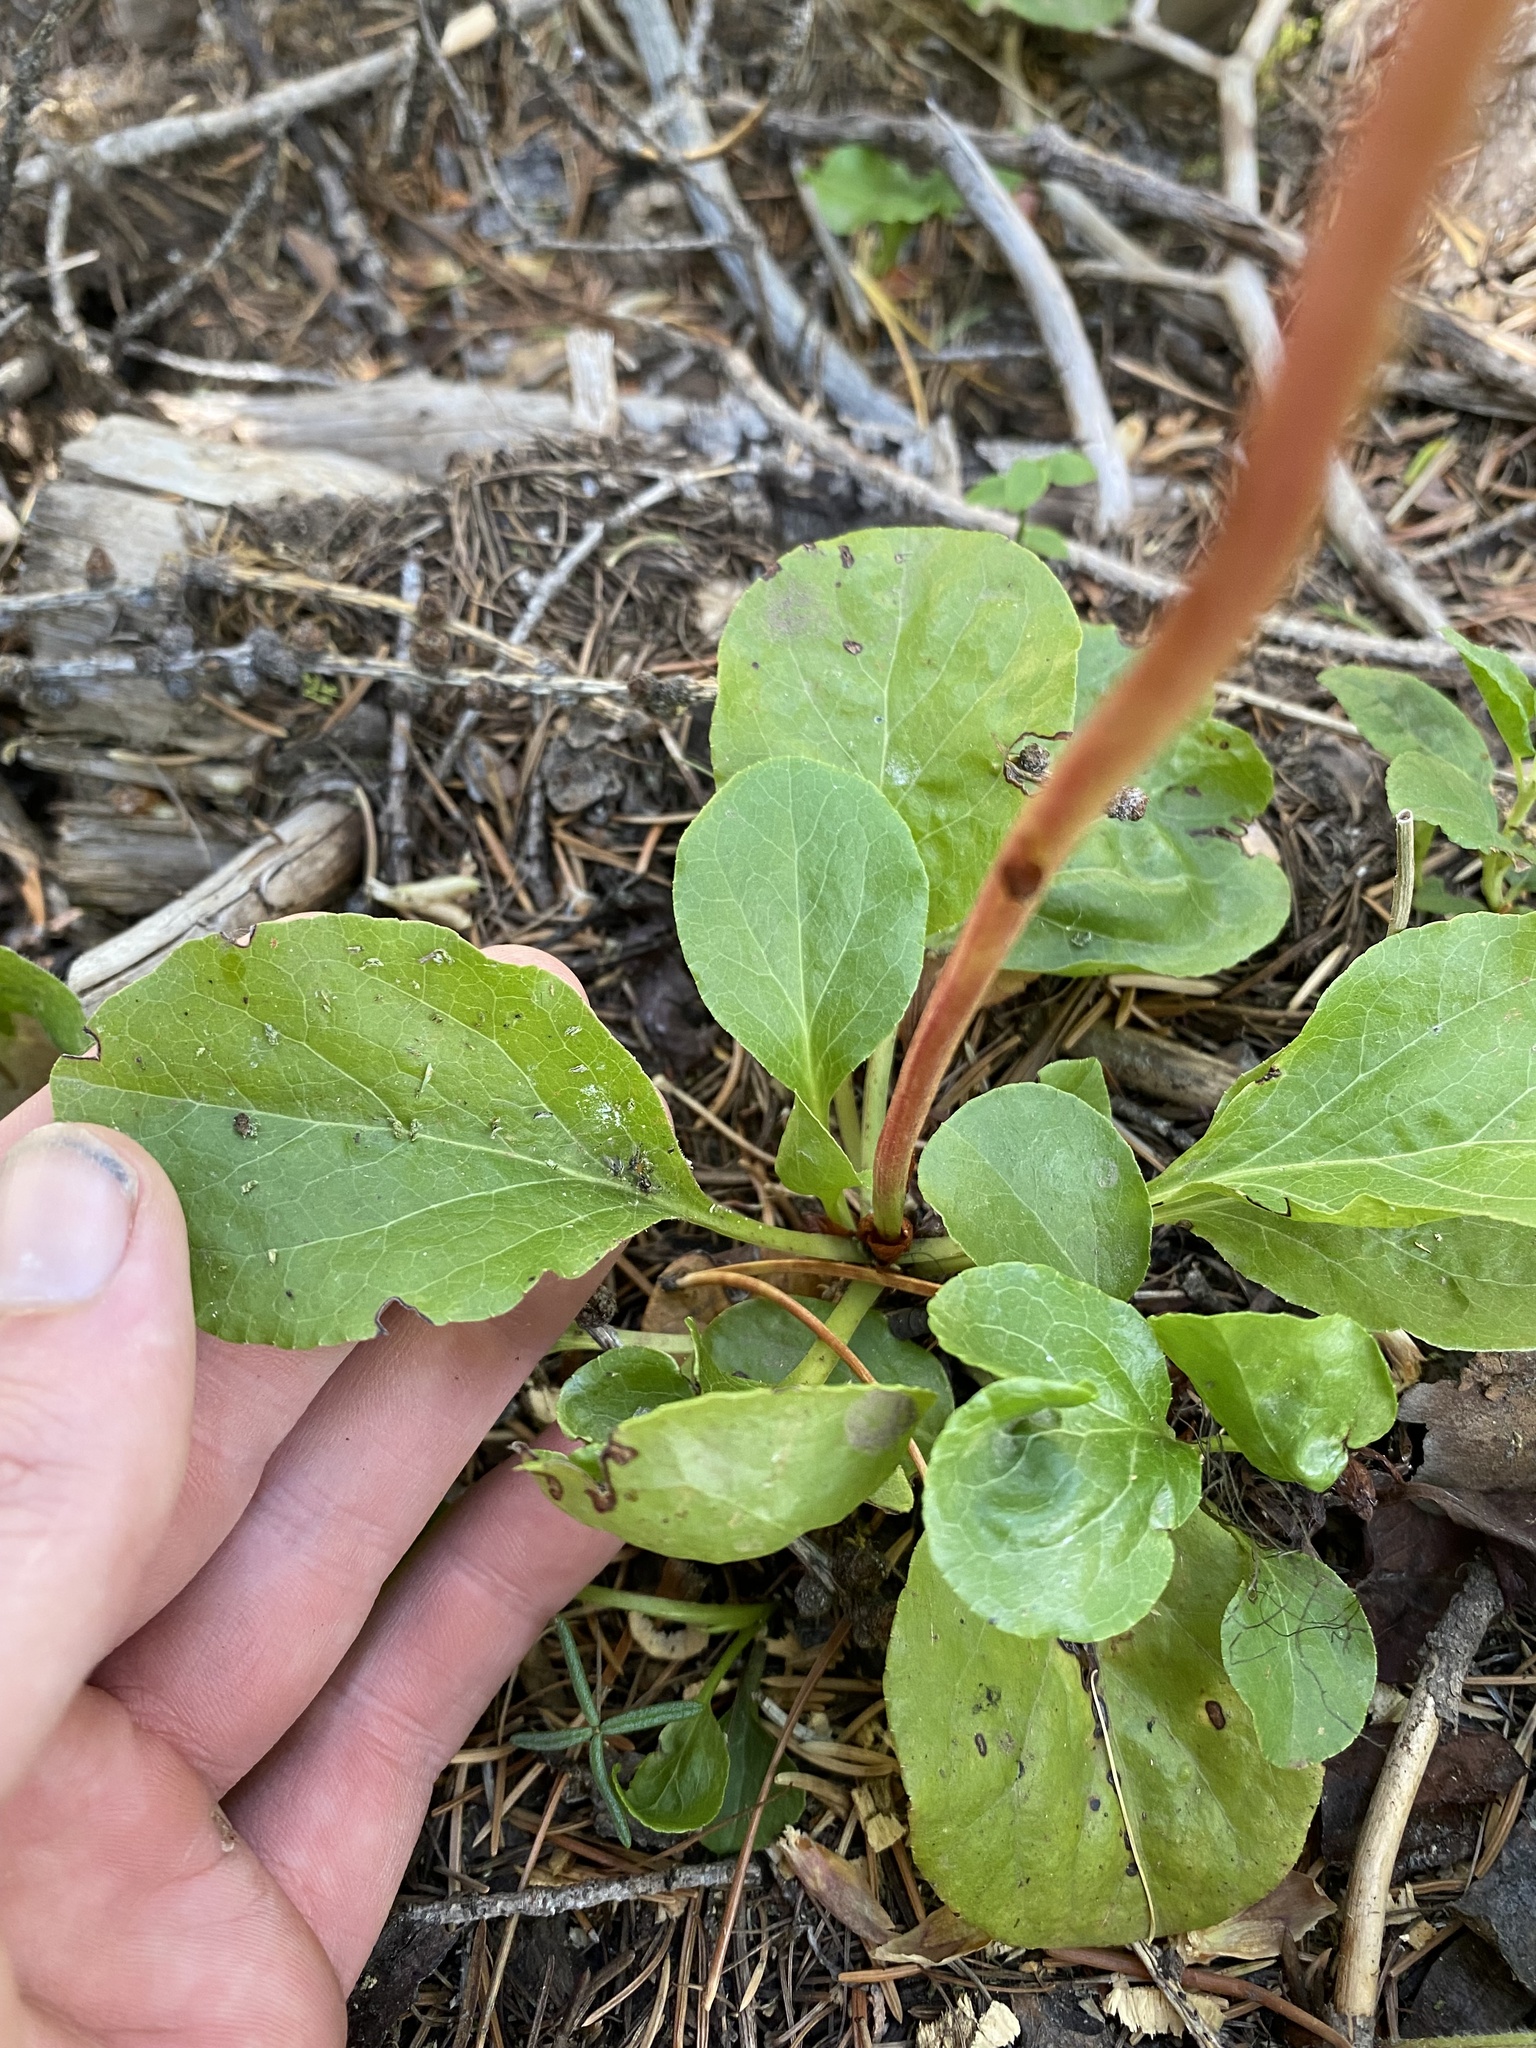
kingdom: Plantae
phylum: Tracheophyta
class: Magnoliopsida
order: Ericales
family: Ericaceae
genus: Pyrola
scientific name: Pyrola asarifolia
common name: Bog wintergreen
